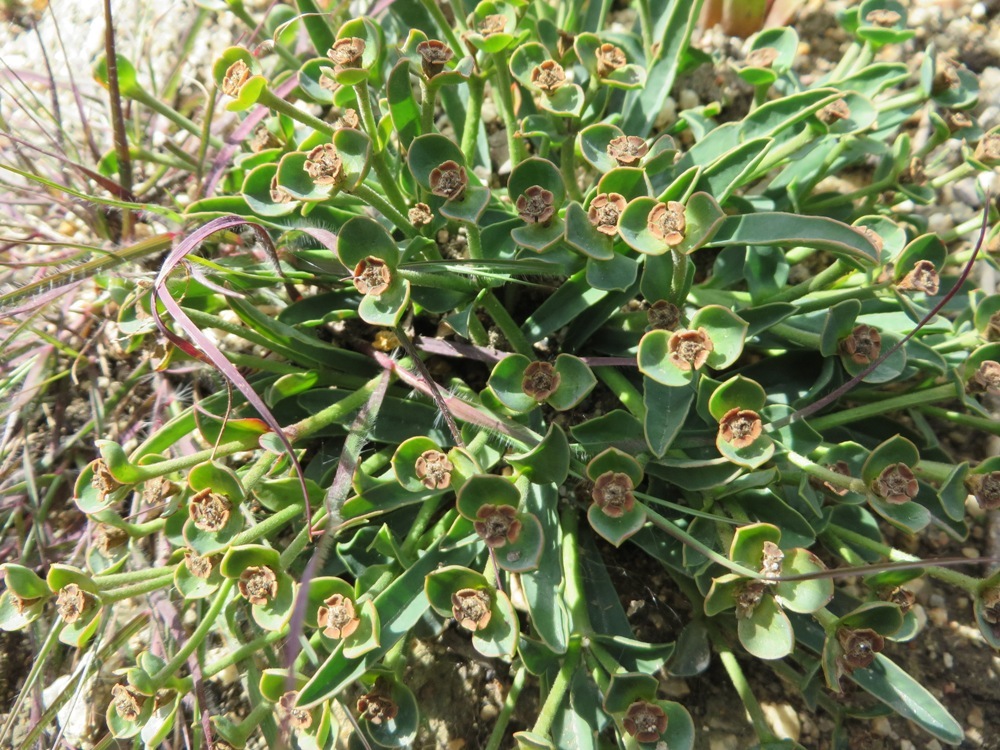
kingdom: Plantae
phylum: Tracheophyta
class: Magnoliopsida
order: Malpighiales
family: Euphorbiaceae
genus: Euphorbia
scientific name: Euphorbia silenifolia
